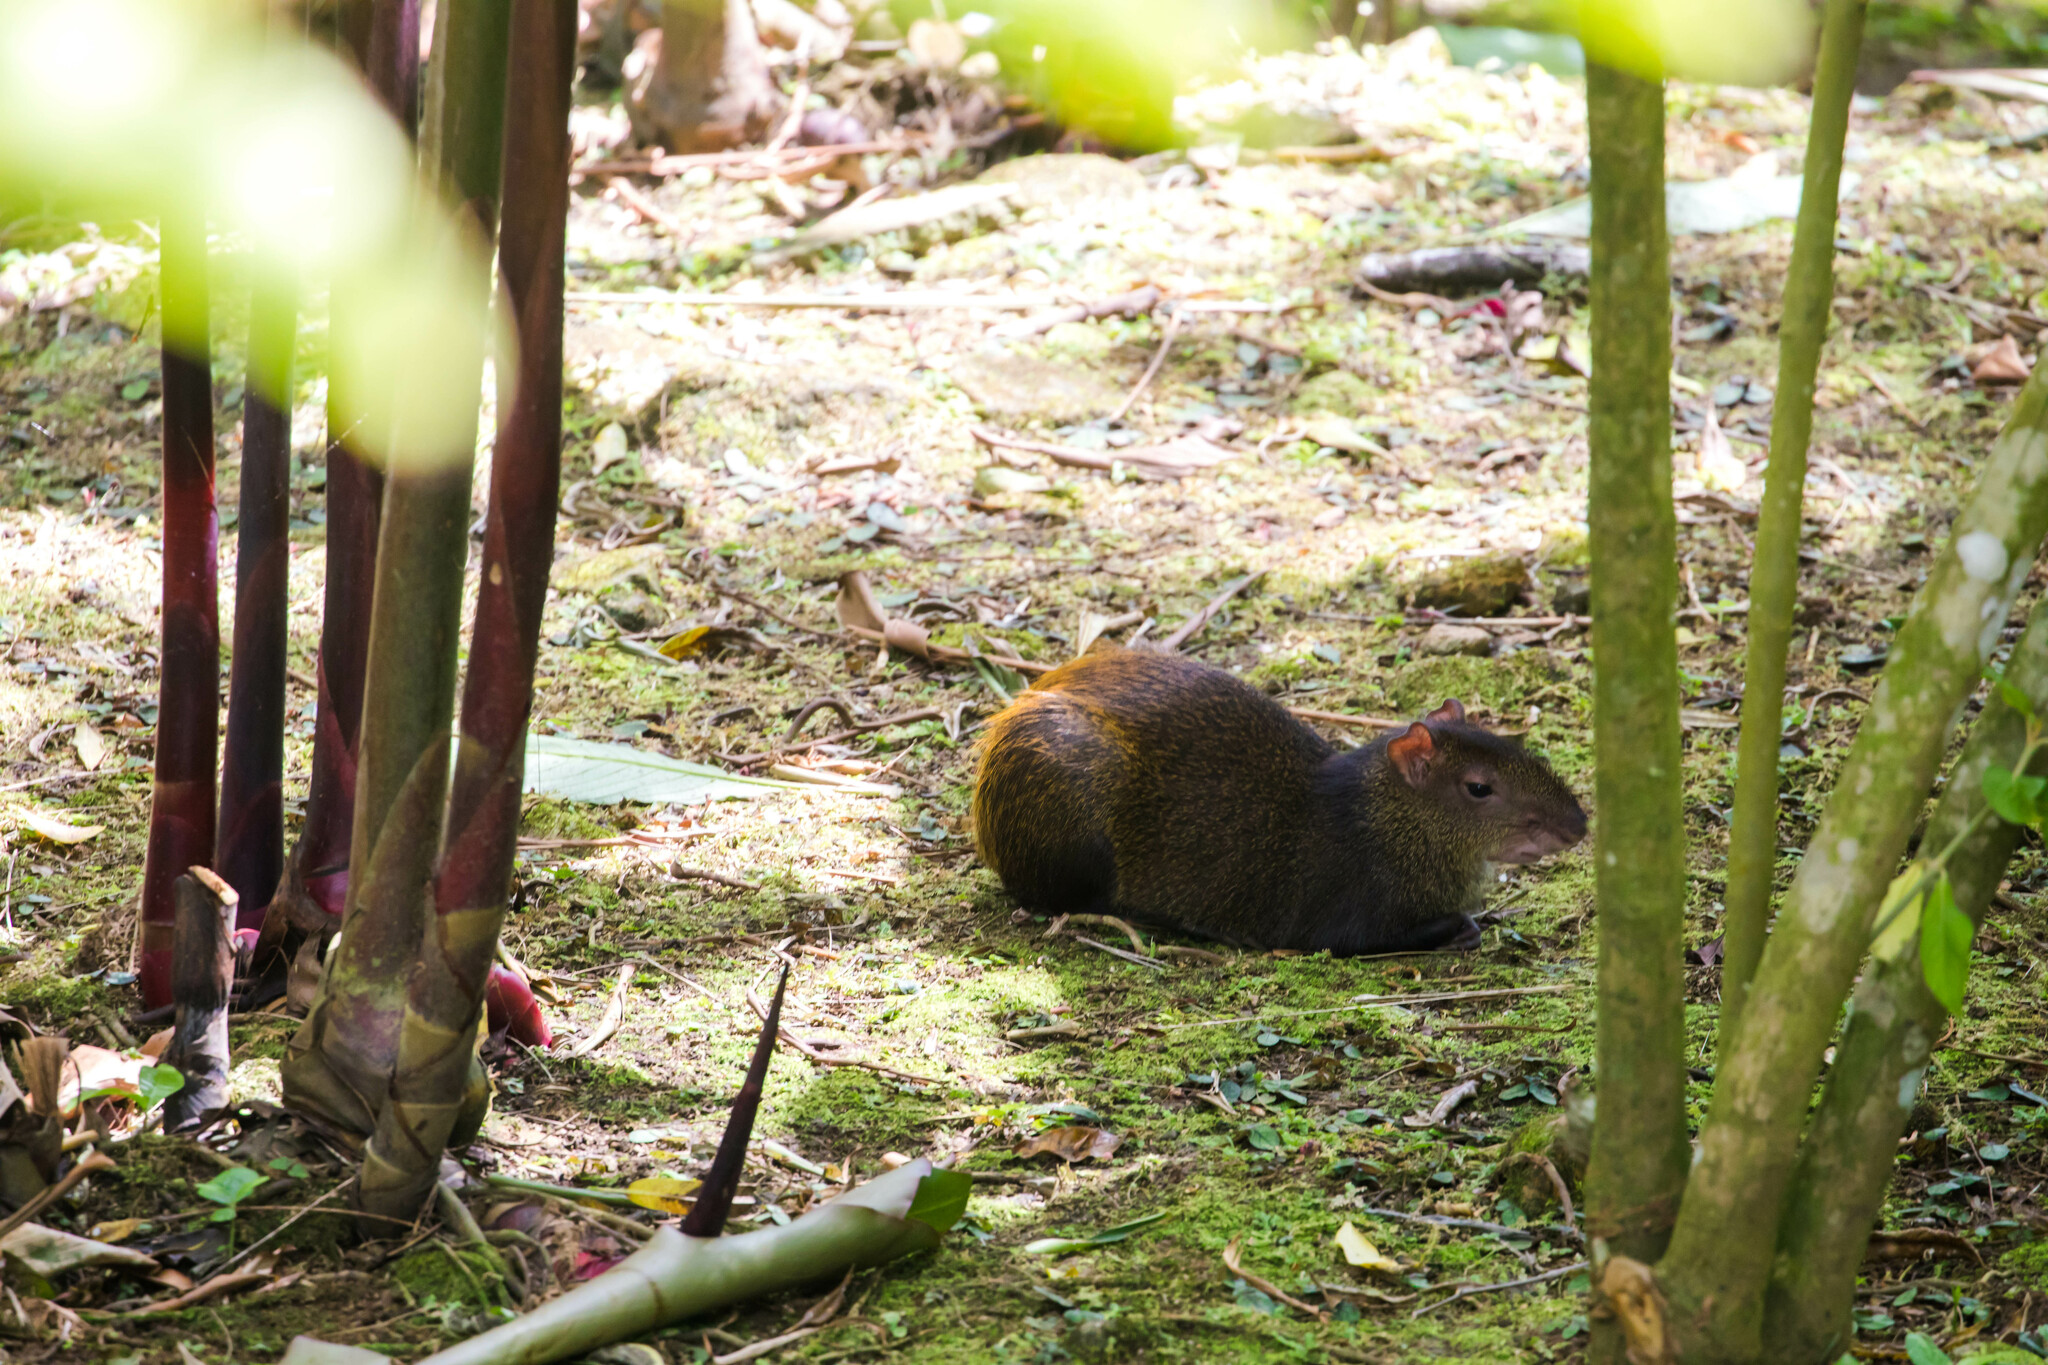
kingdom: Animalia
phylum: Chordata
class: Mammalia
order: Rodentia
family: Dasyproctidae
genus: Dasyprocta
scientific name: Dasyprocta punctata
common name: Central american agouti
